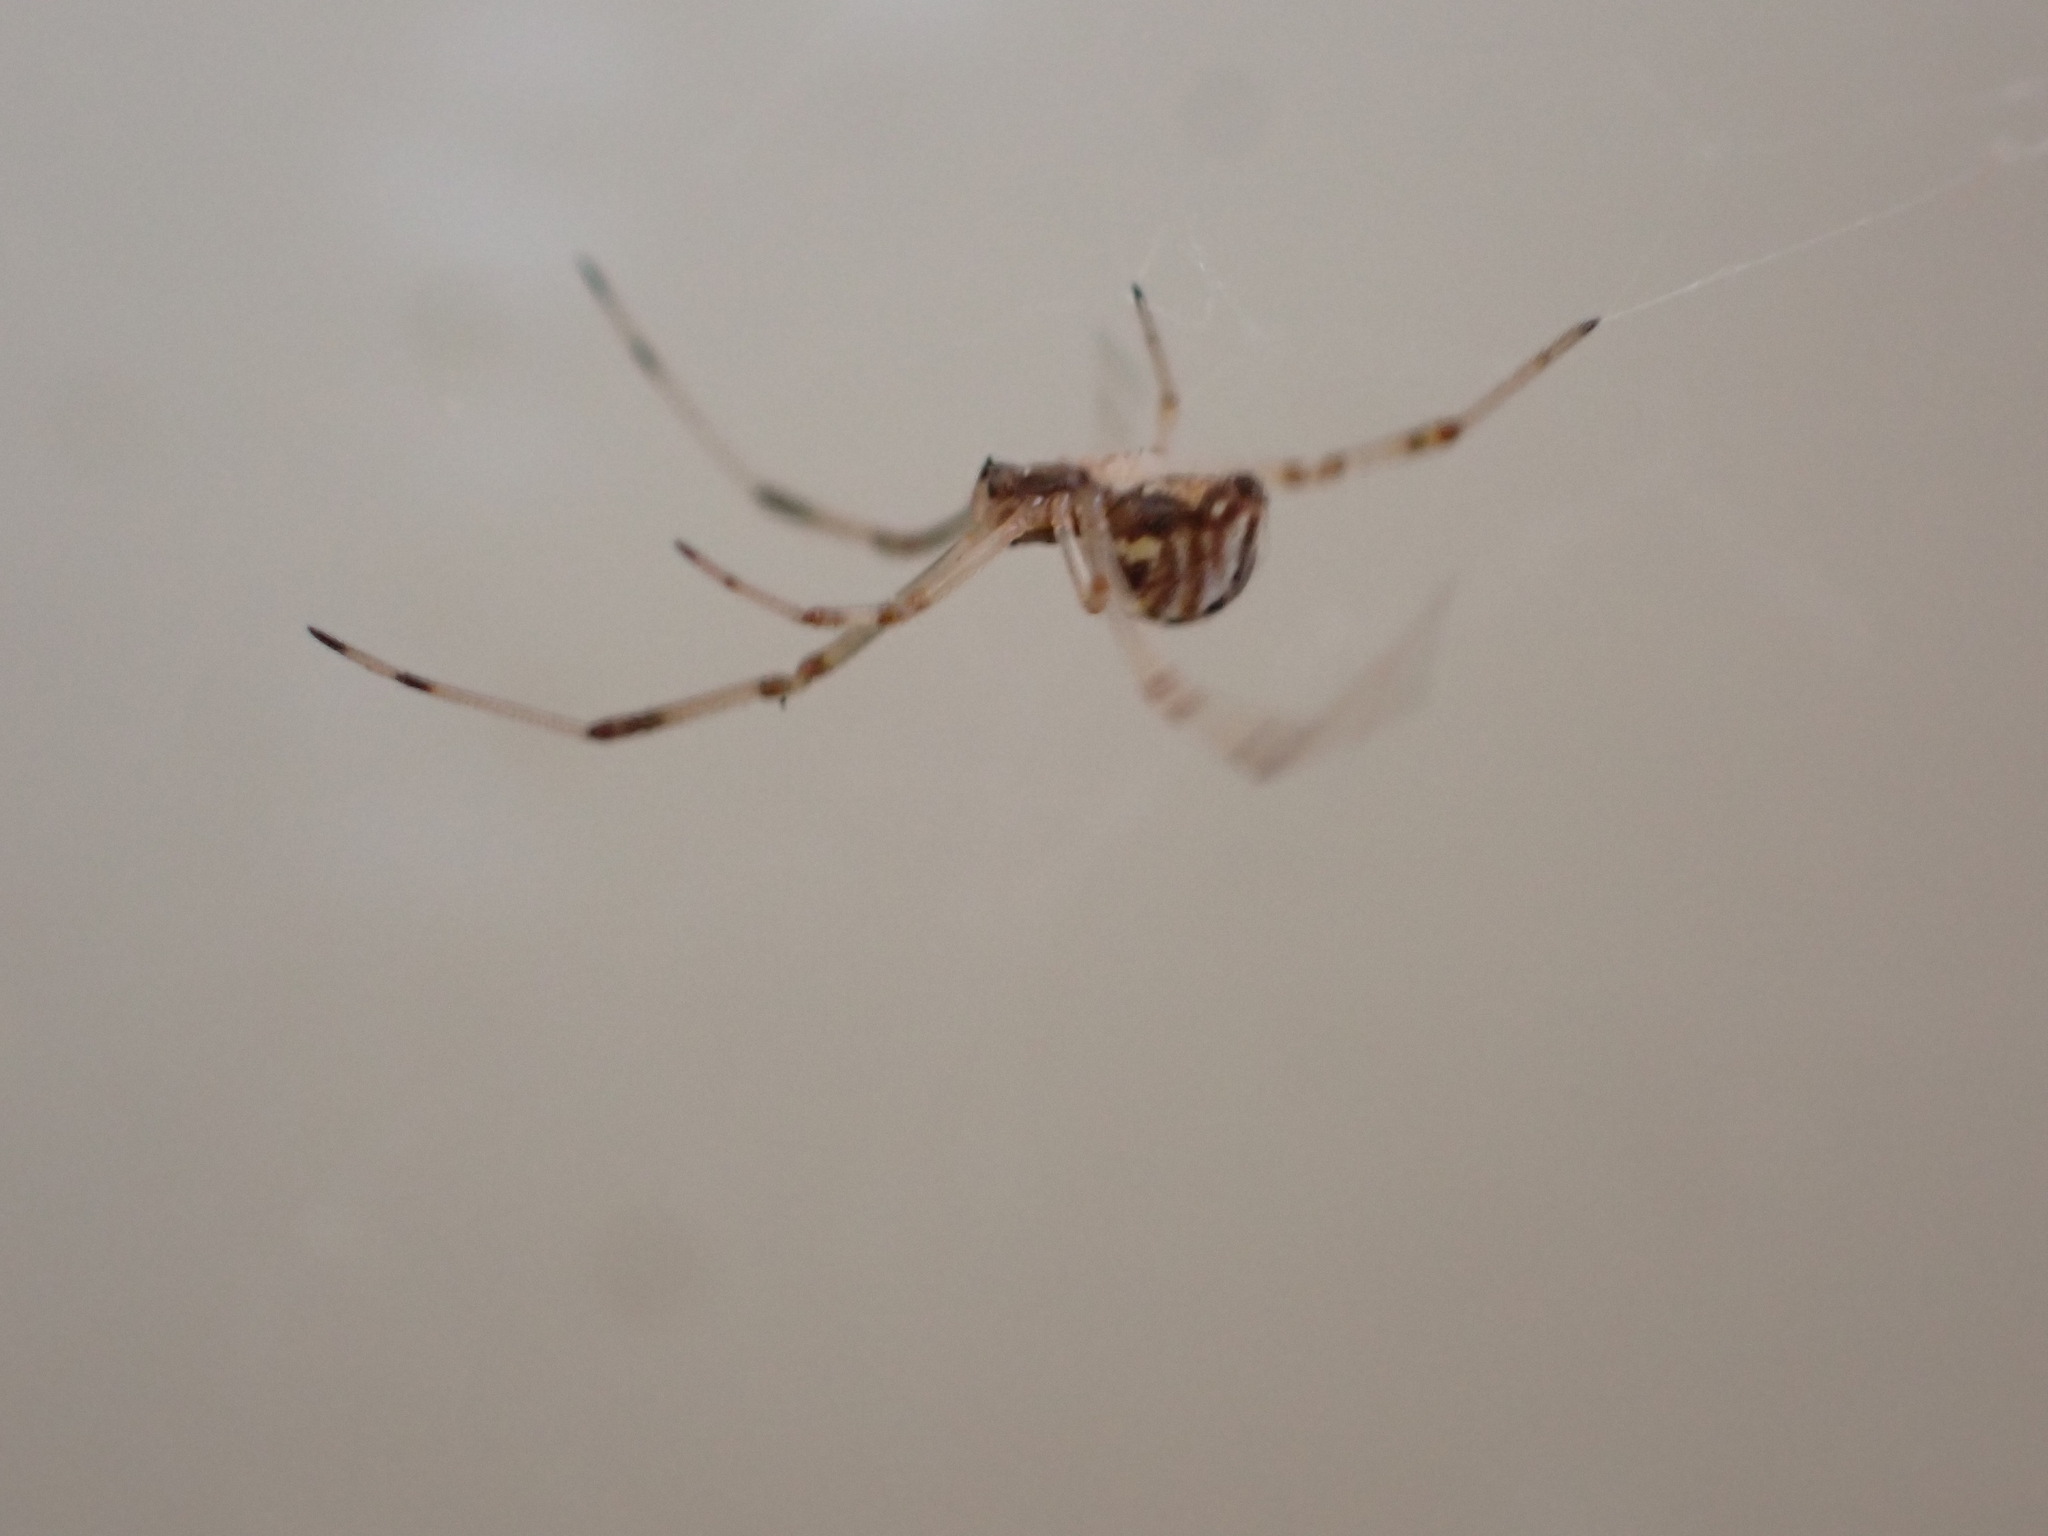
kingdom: Animalia
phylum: Arthropoda
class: Arachnida
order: Araneae
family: Theridiidae
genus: Latrodectus
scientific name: Latrodectus geometricus
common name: Brown widow spider
